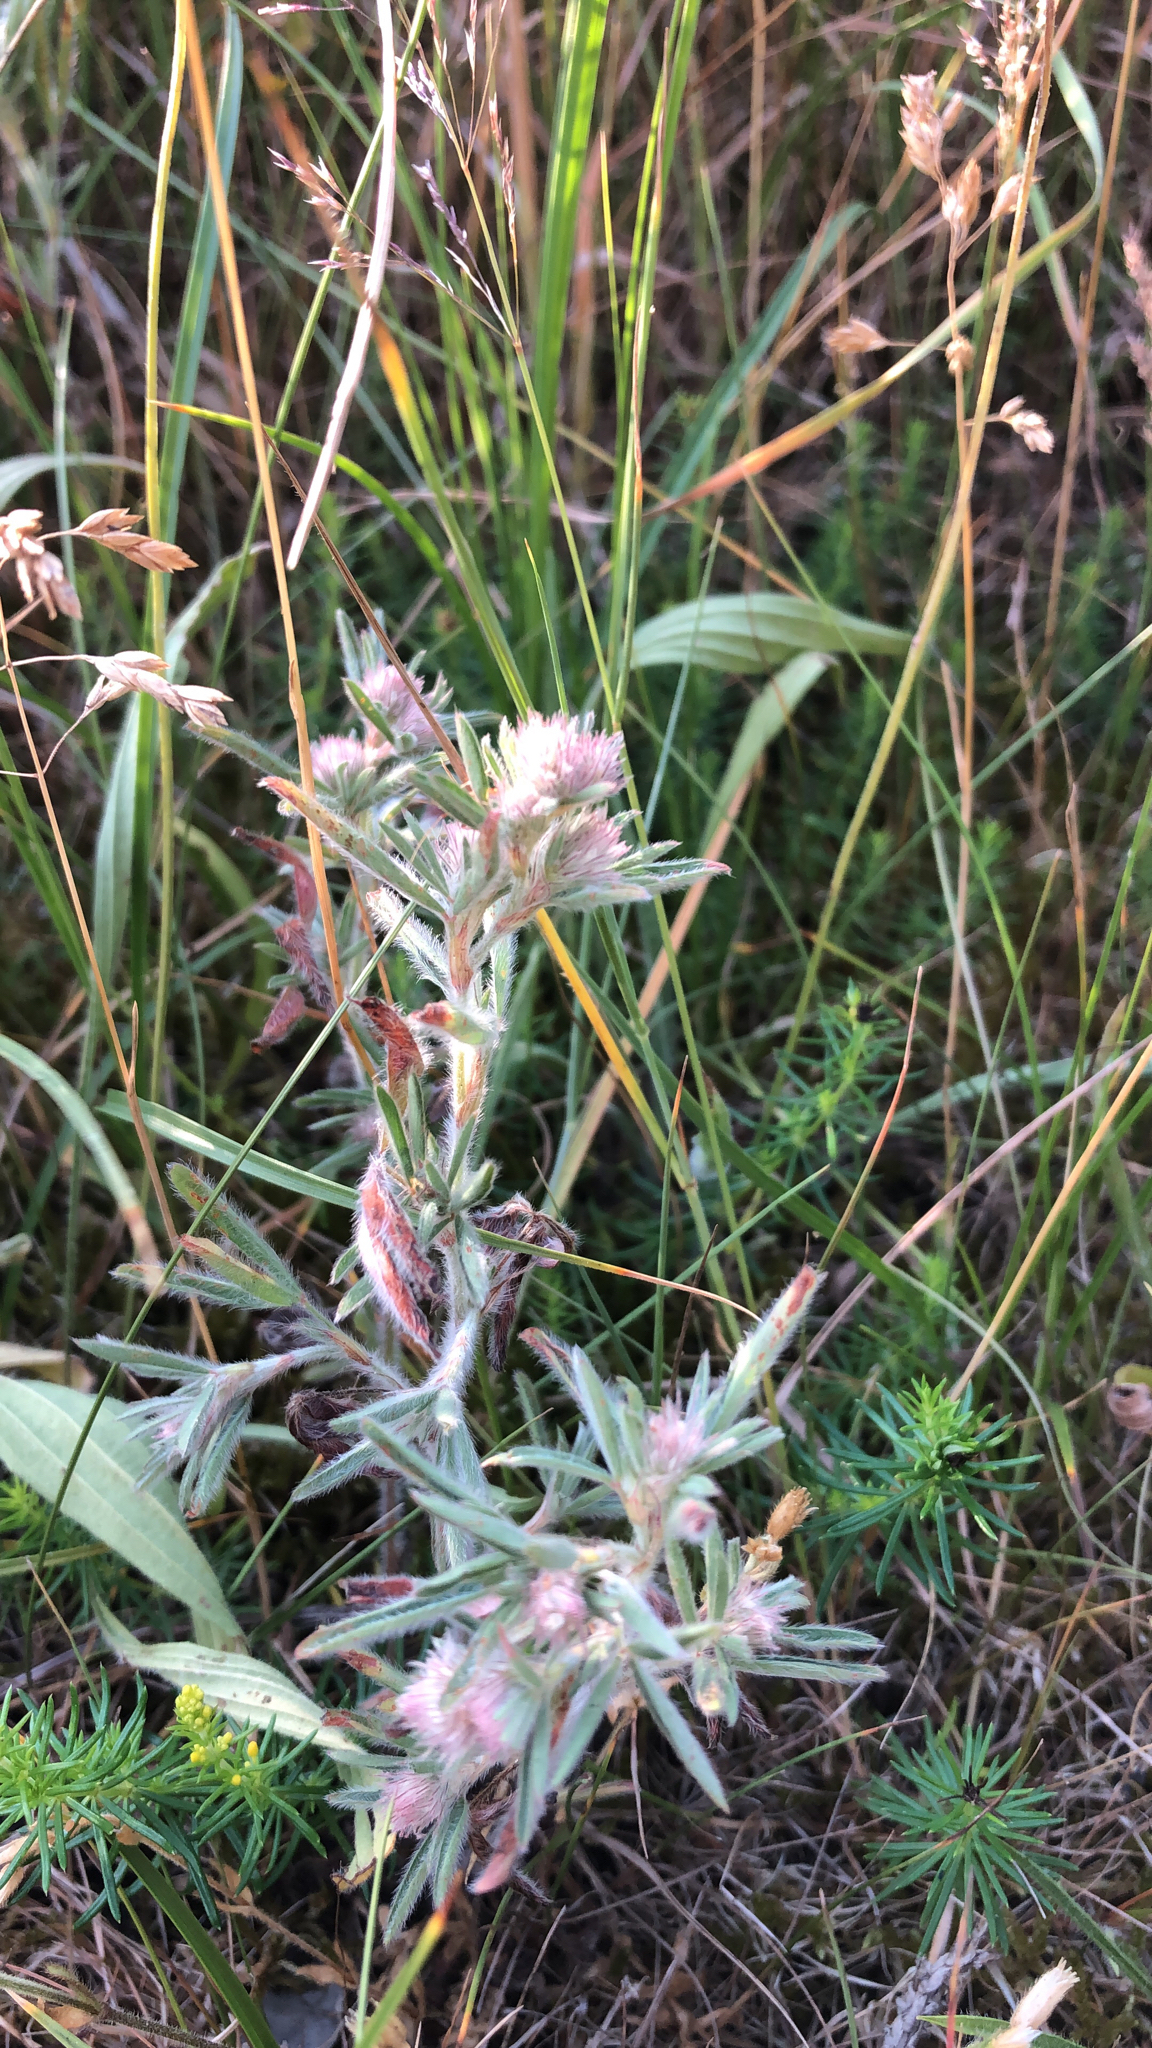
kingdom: Plantae
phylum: Tracheophyta
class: Magnoliopsida
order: Fabales
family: Fabaceae
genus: Trifolium
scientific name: Trifolium arvense
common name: Hare's-foot clover
